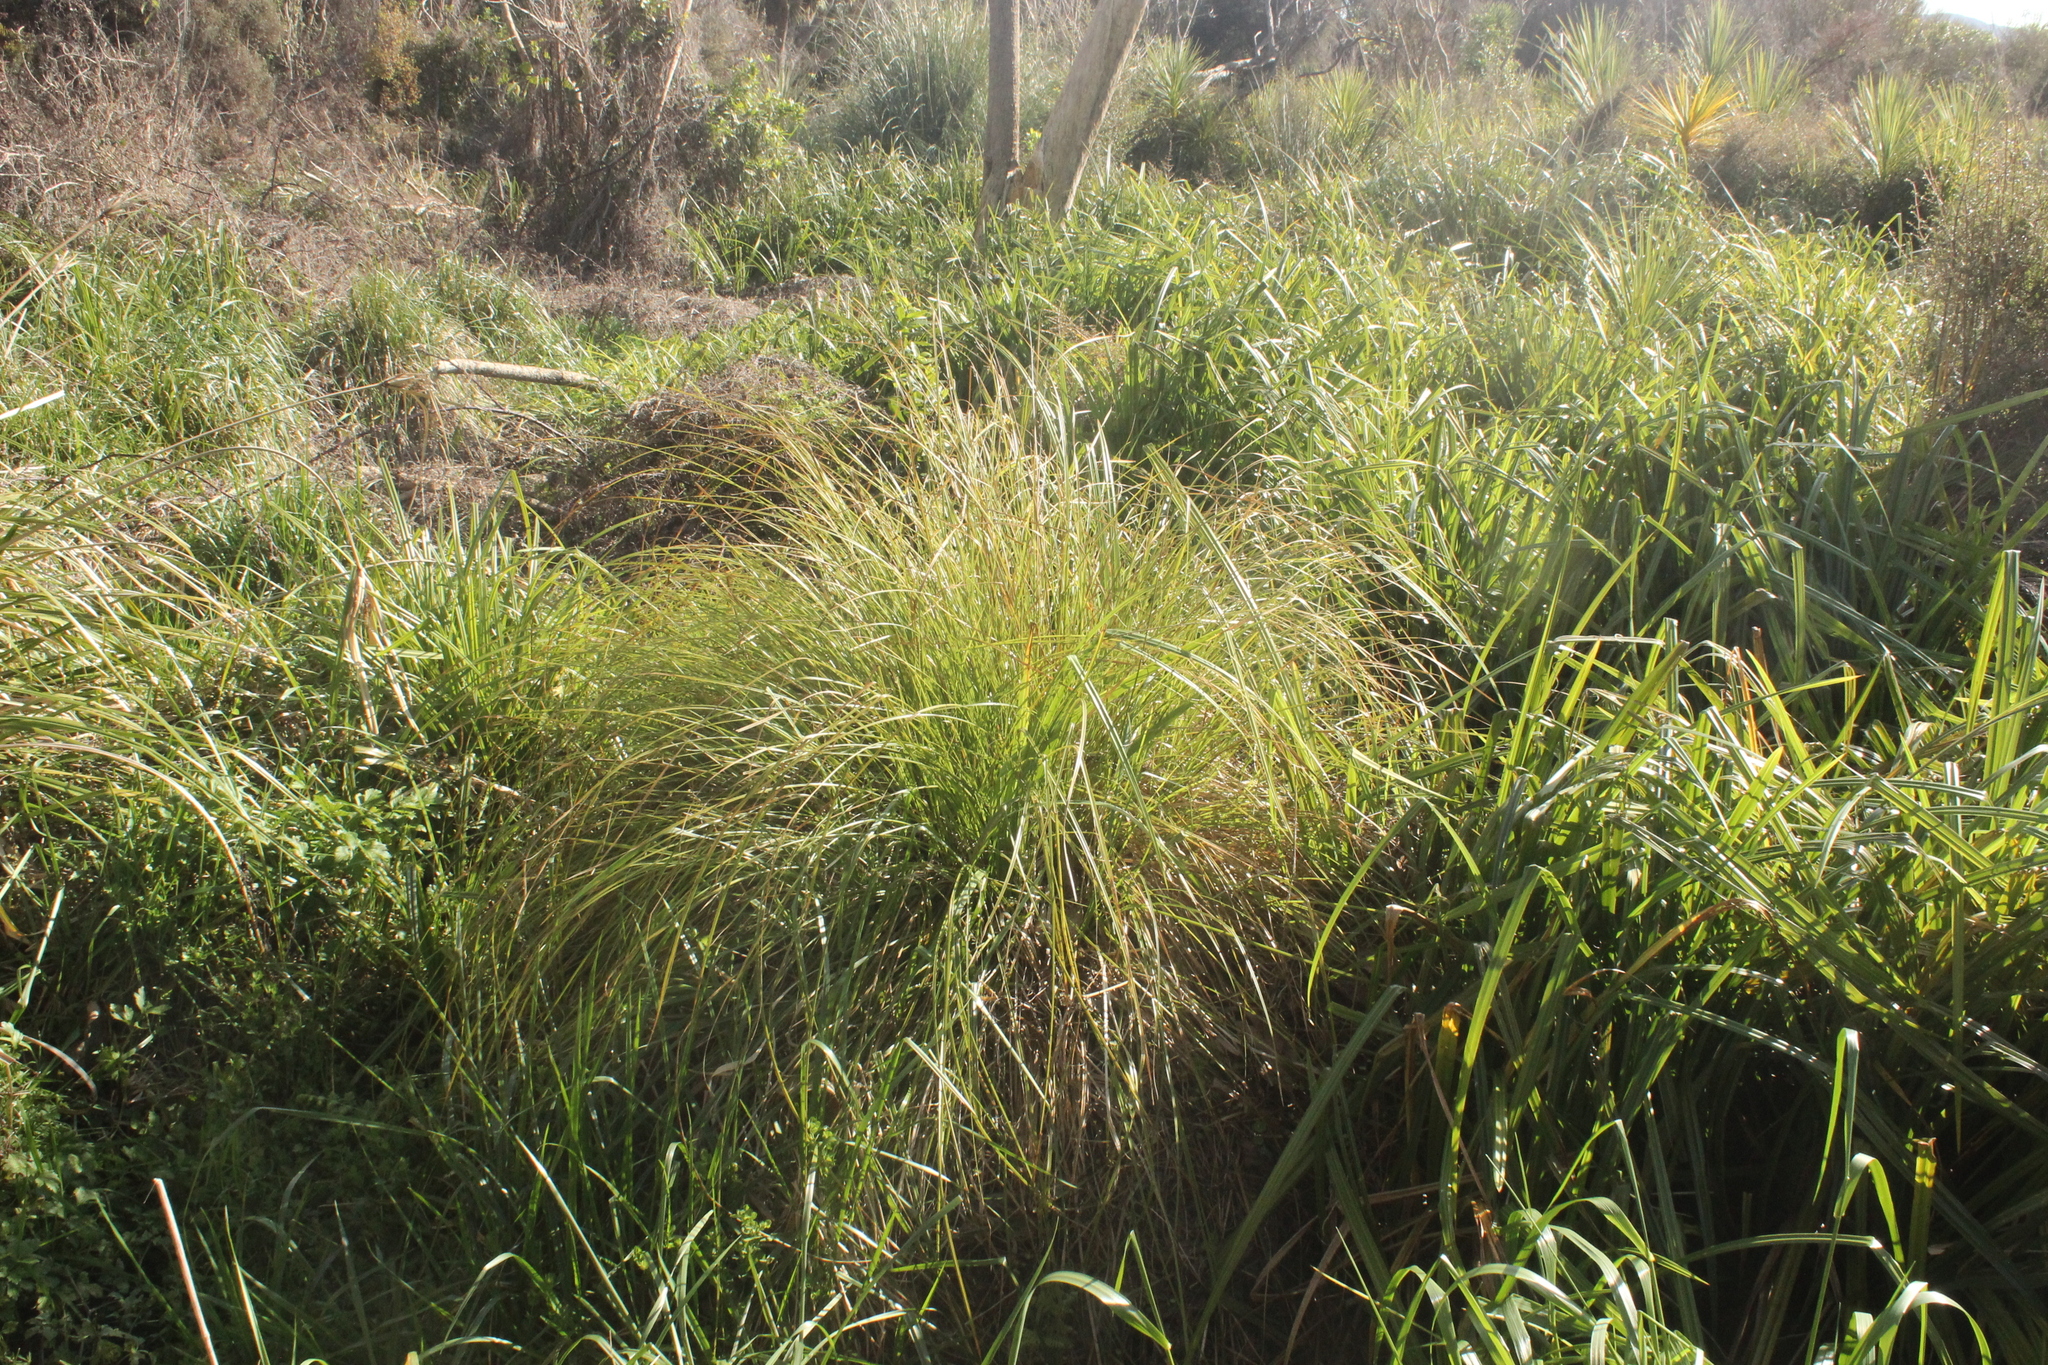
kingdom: Plantae
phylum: Tracheophyta
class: Liliopsida
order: Poales
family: Cyperaceae
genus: Carex
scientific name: Carex secta
